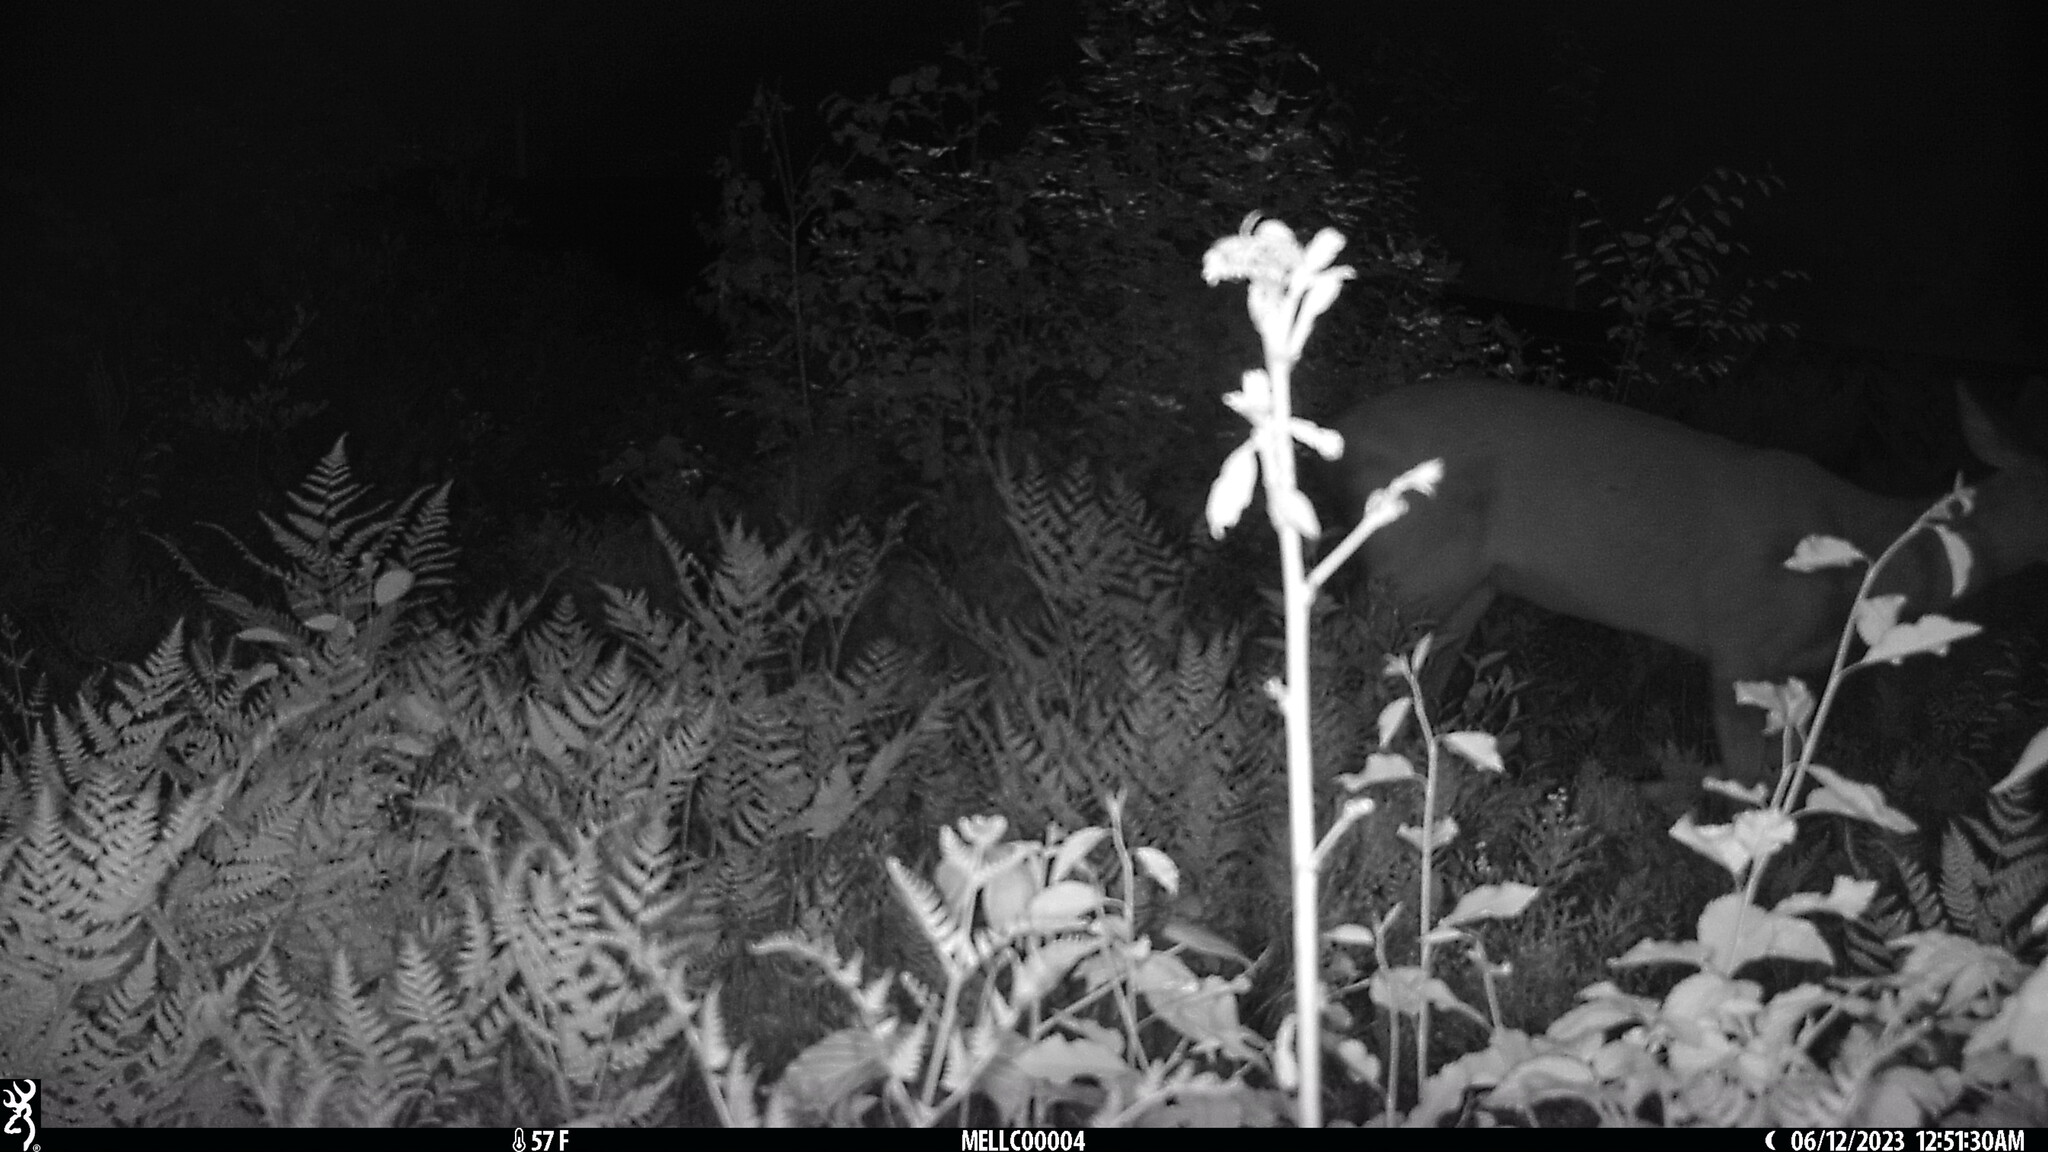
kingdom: Animalia
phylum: Chordata
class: Mammalia
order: Artiodactyla
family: Cervidae
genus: Odocoileus
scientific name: Odocoileus virginianus
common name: White-tailed deer
